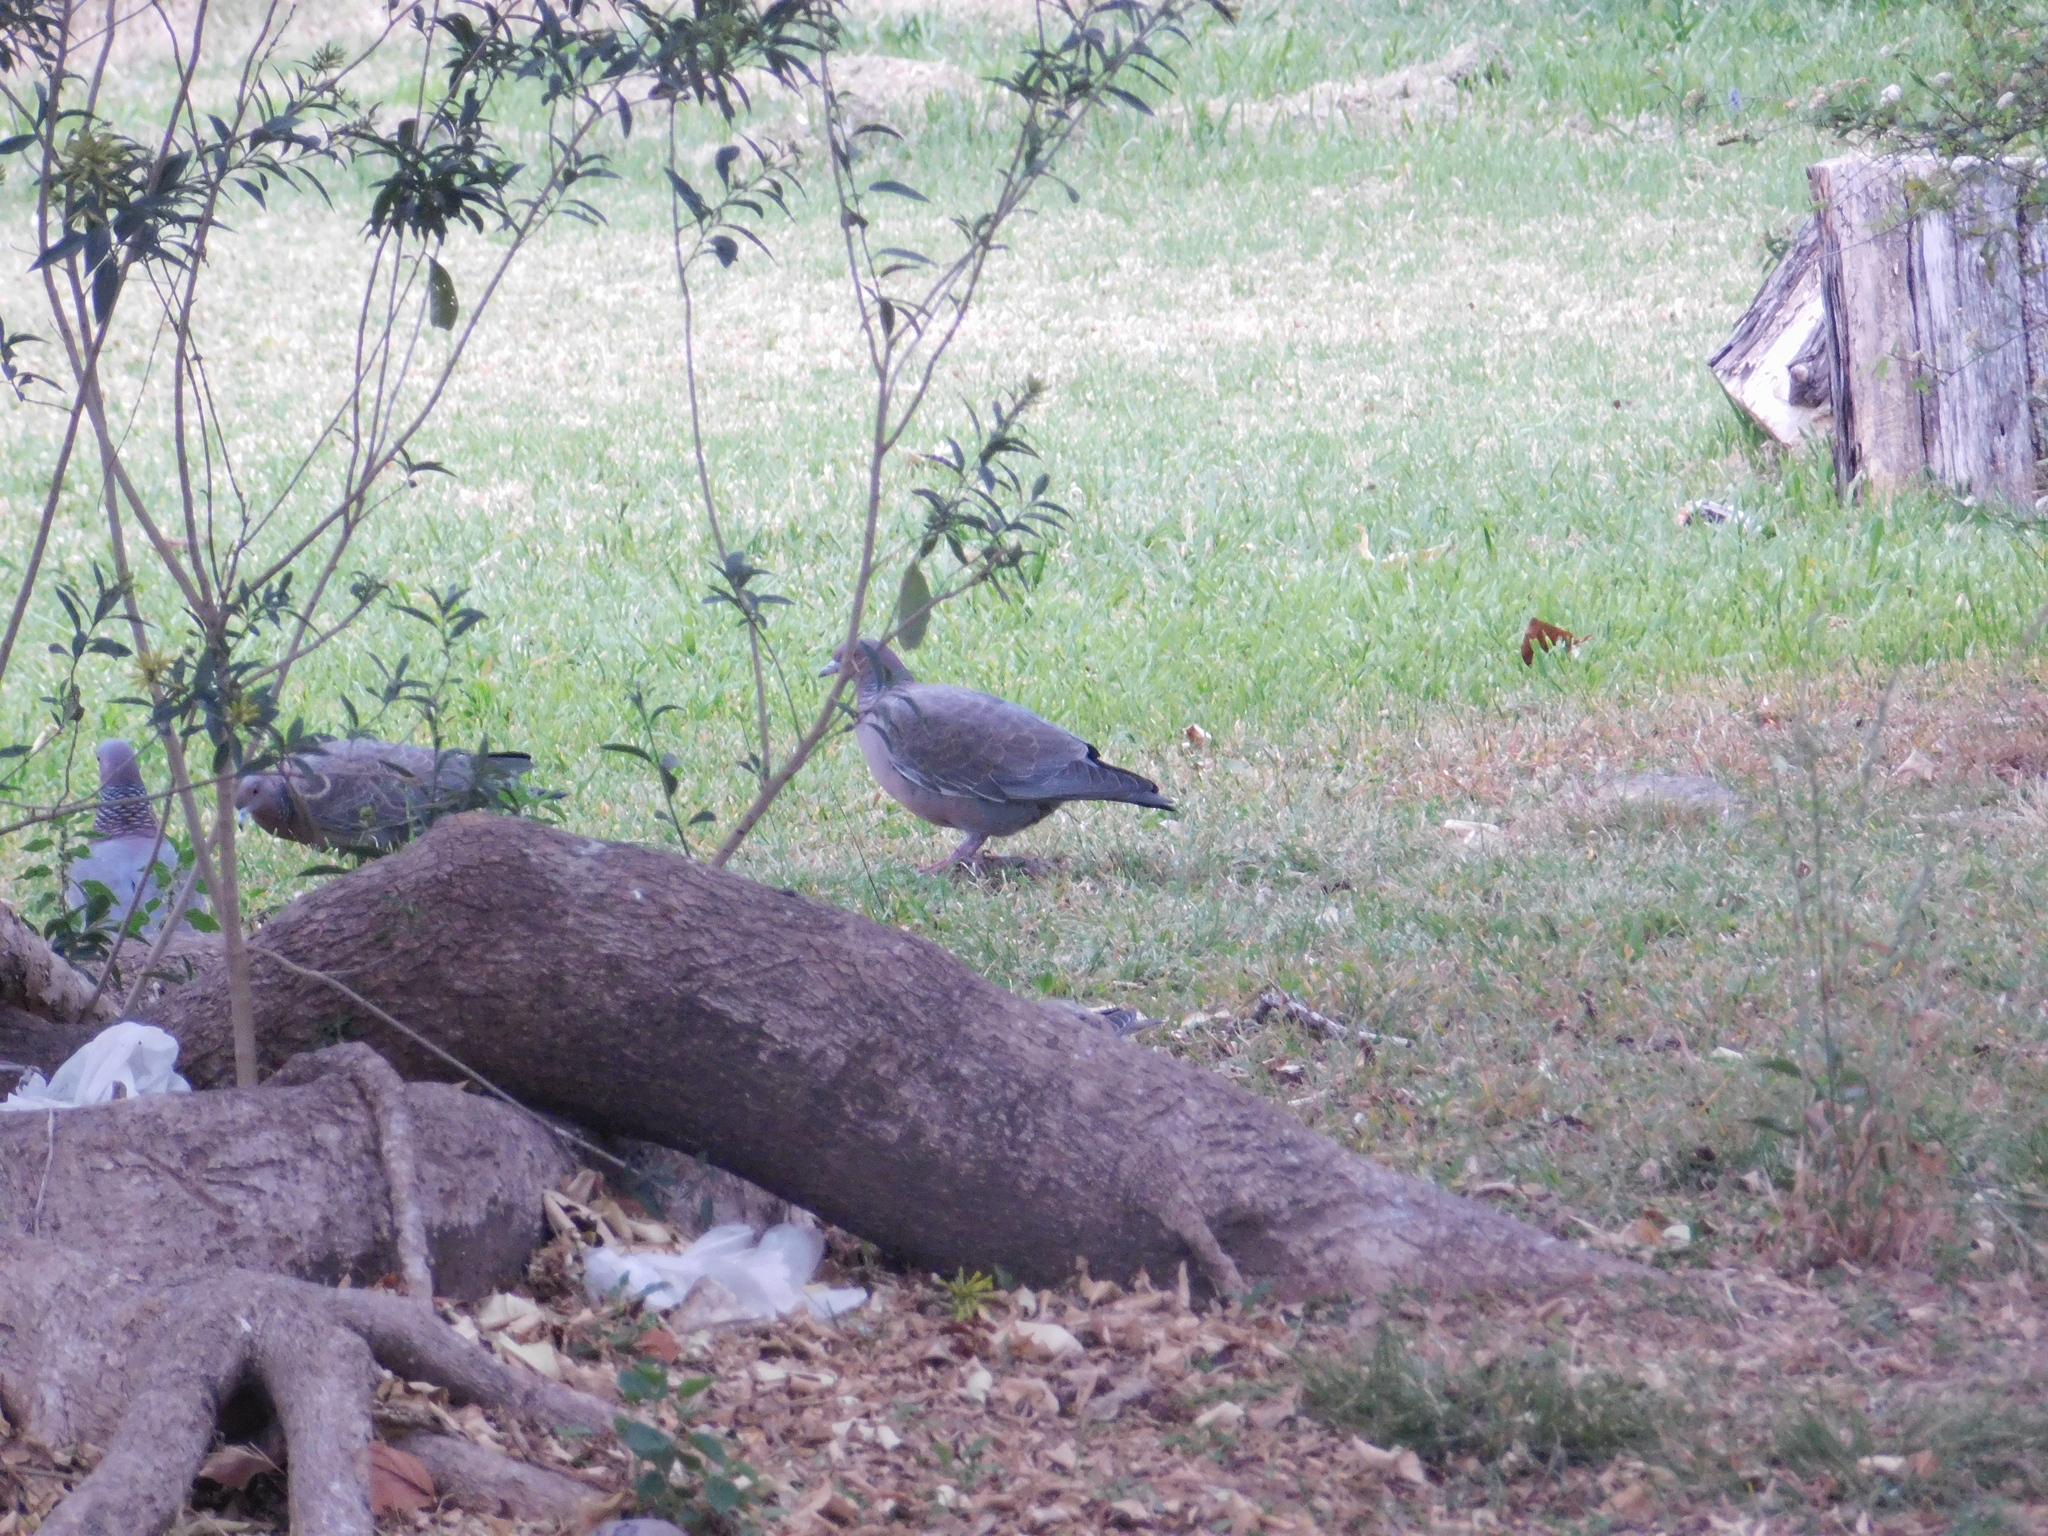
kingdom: Animalia
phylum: Chordata
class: Aves
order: Columbiformes
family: Columbidae
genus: Patagioenas
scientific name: Patagioenas picazuro
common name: Picazuro pigeon
